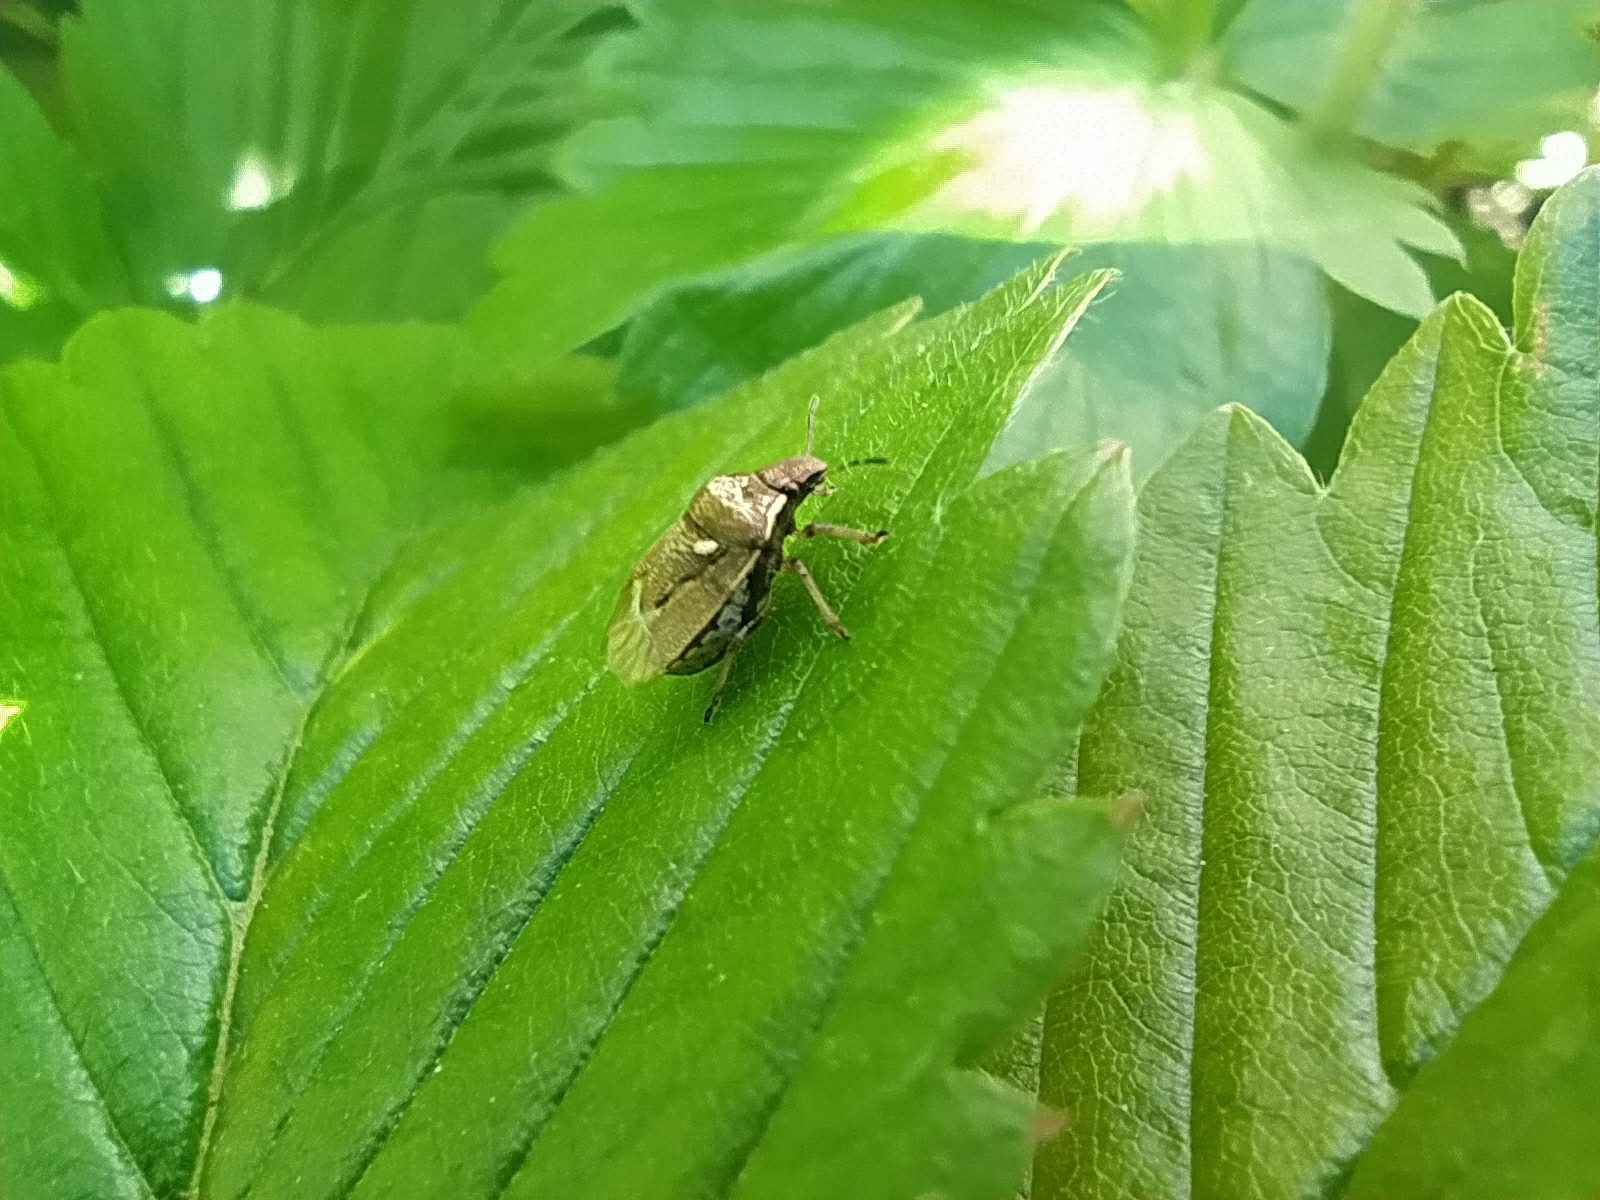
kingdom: Animalia
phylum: Arthropoda
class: Insecta
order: Hemiptera
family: Pentatomidae
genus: Eysarcoris
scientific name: Eysarcoris aeneus
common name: New forest shieldbug
